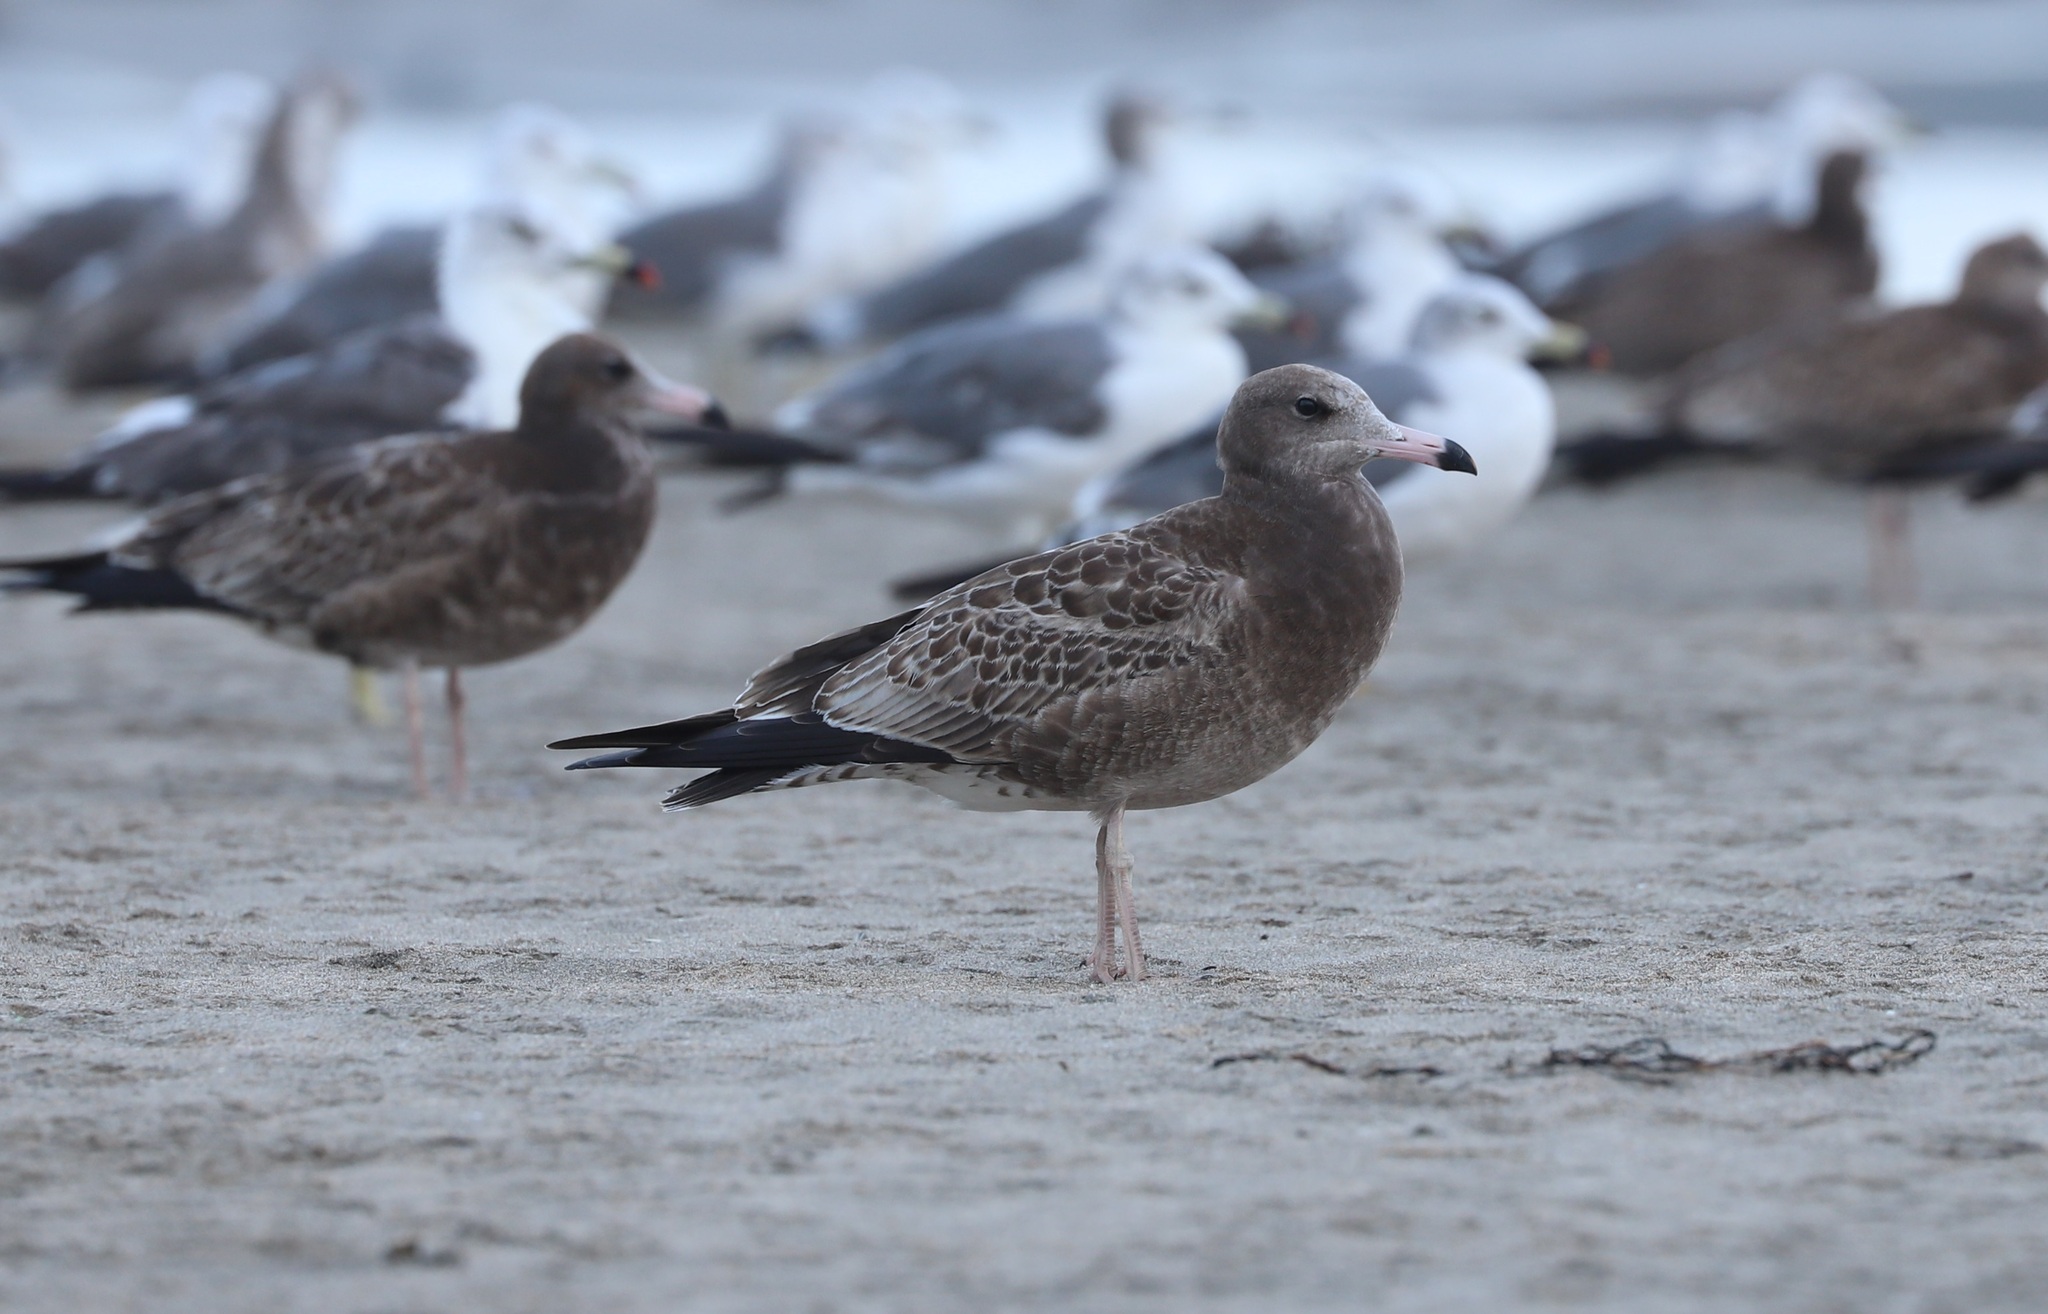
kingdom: Animalia
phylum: Chordata
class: Aves
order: Charadriiformes
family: Laridae
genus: Larus
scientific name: Larus crassirostris
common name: Black-tailed gull
